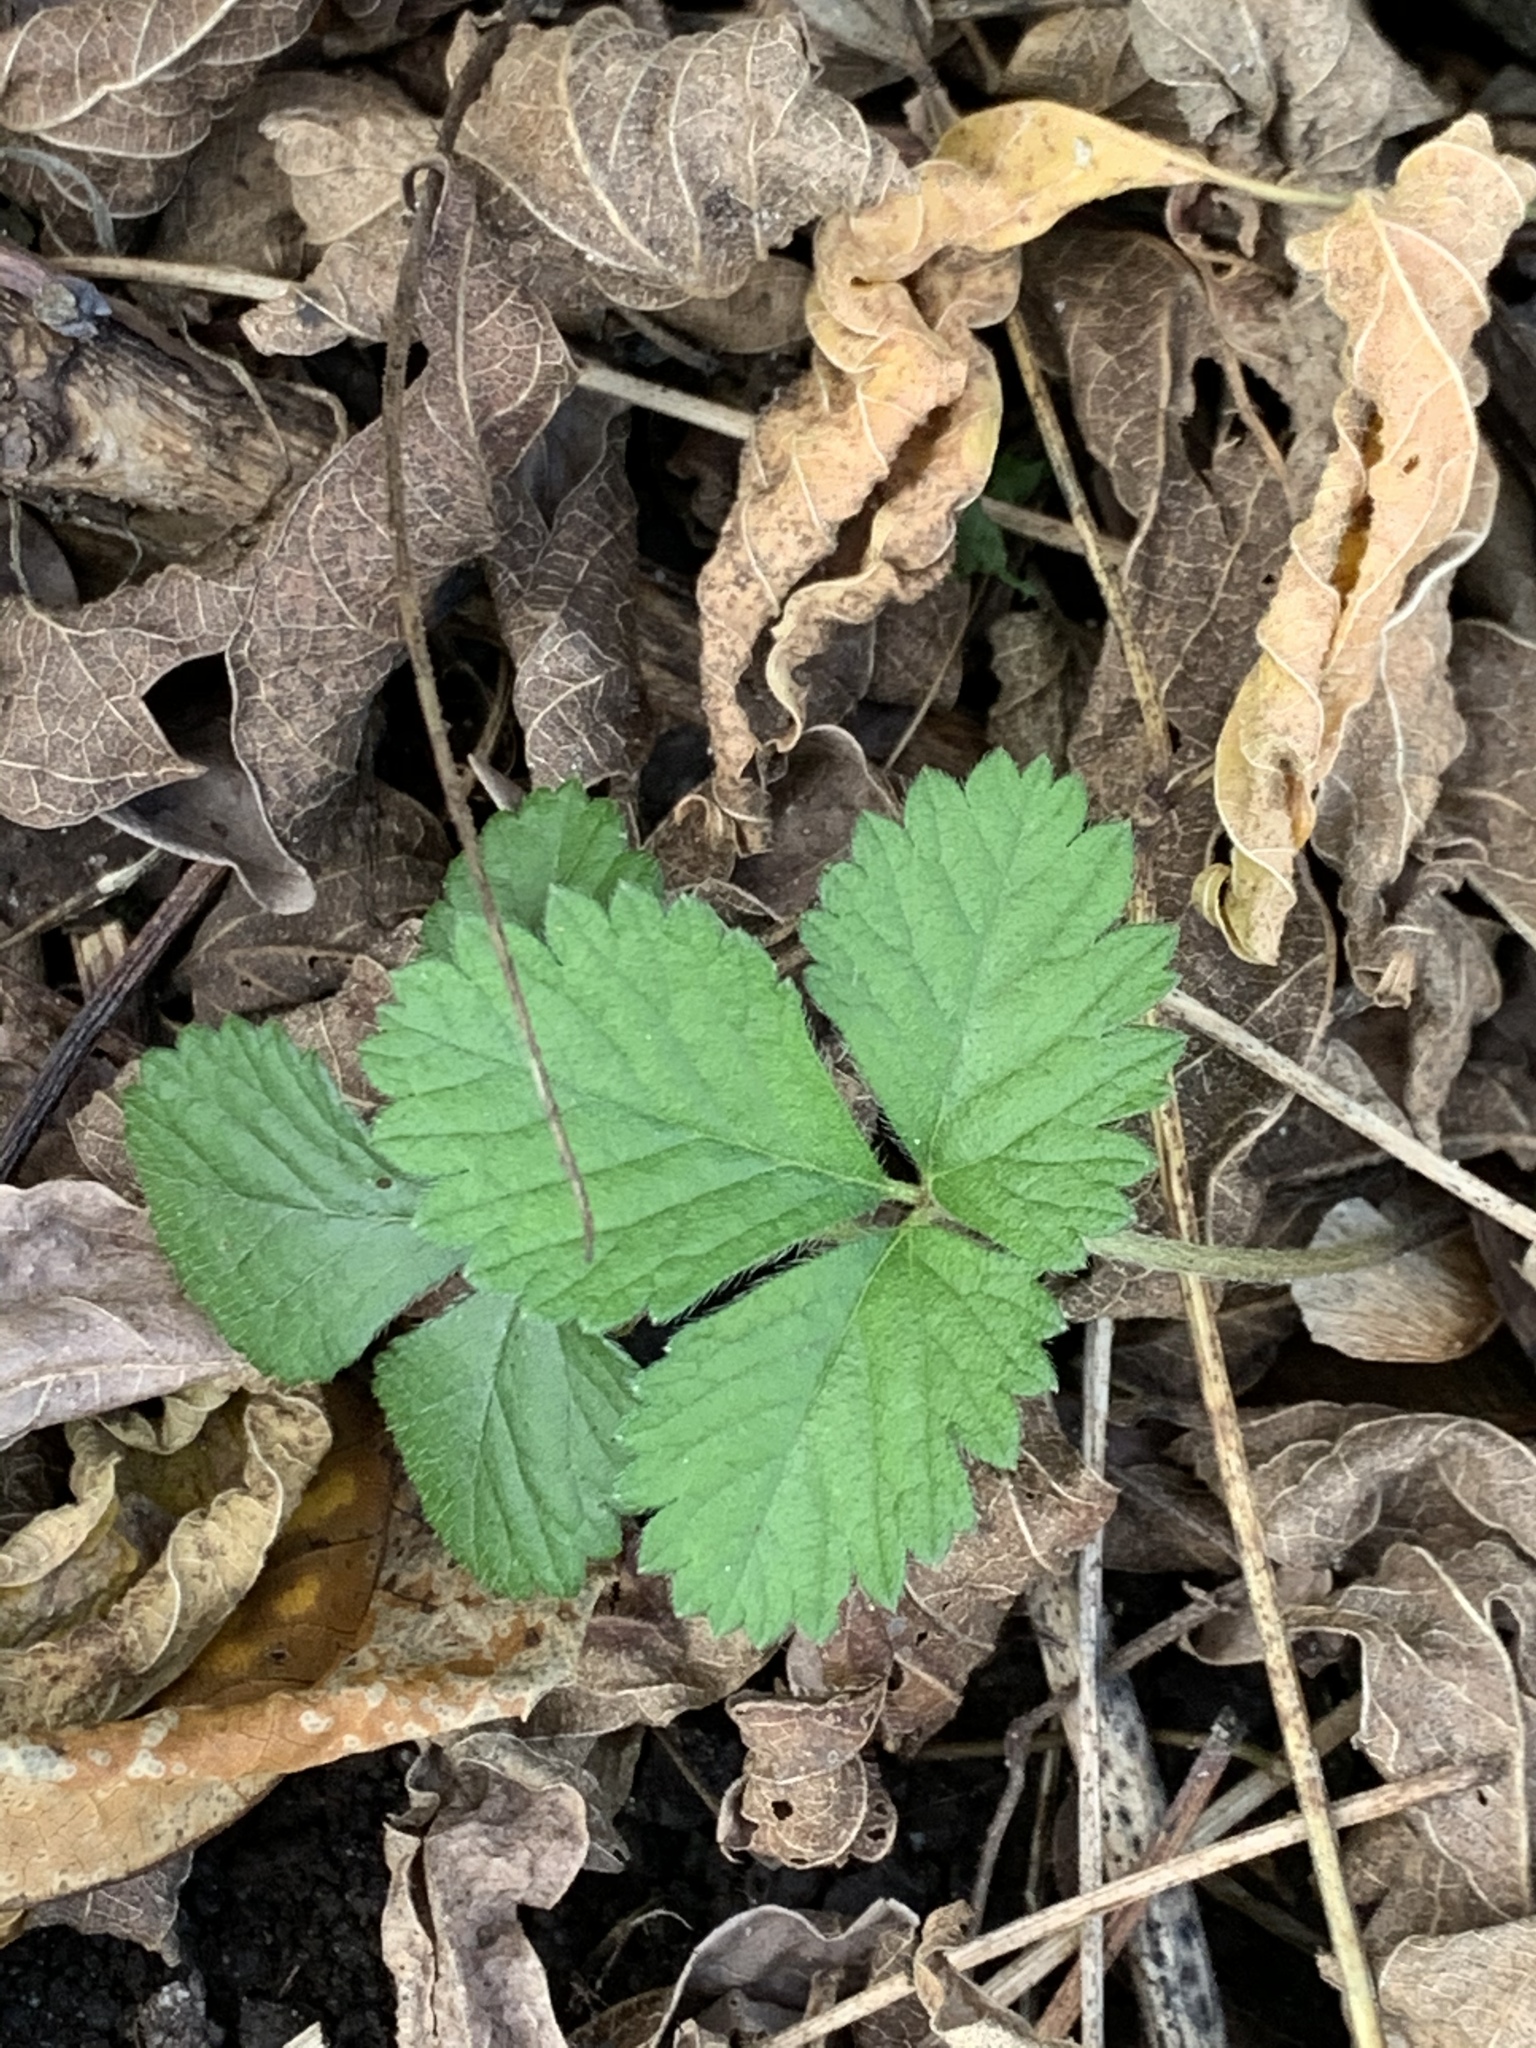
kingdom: Plantae
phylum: Tracheophyta
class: Magnoliopsida
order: Rosales
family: Rosaceae
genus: Potentilla
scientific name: Potentilla indica
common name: Yellow-flowered strawberry
